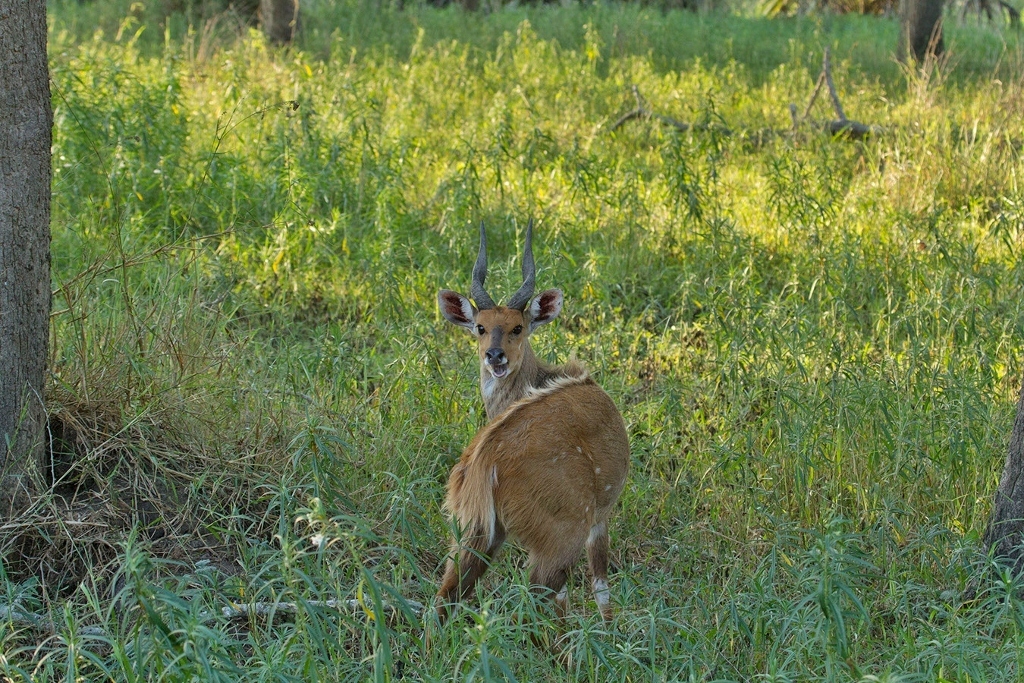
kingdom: Animalia
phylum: Chordata
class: Mammalia
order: Artiodactyla
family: Bovidae
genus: Tragelaphus
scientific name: Tragelaphus scriptus
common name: Bushbuck
